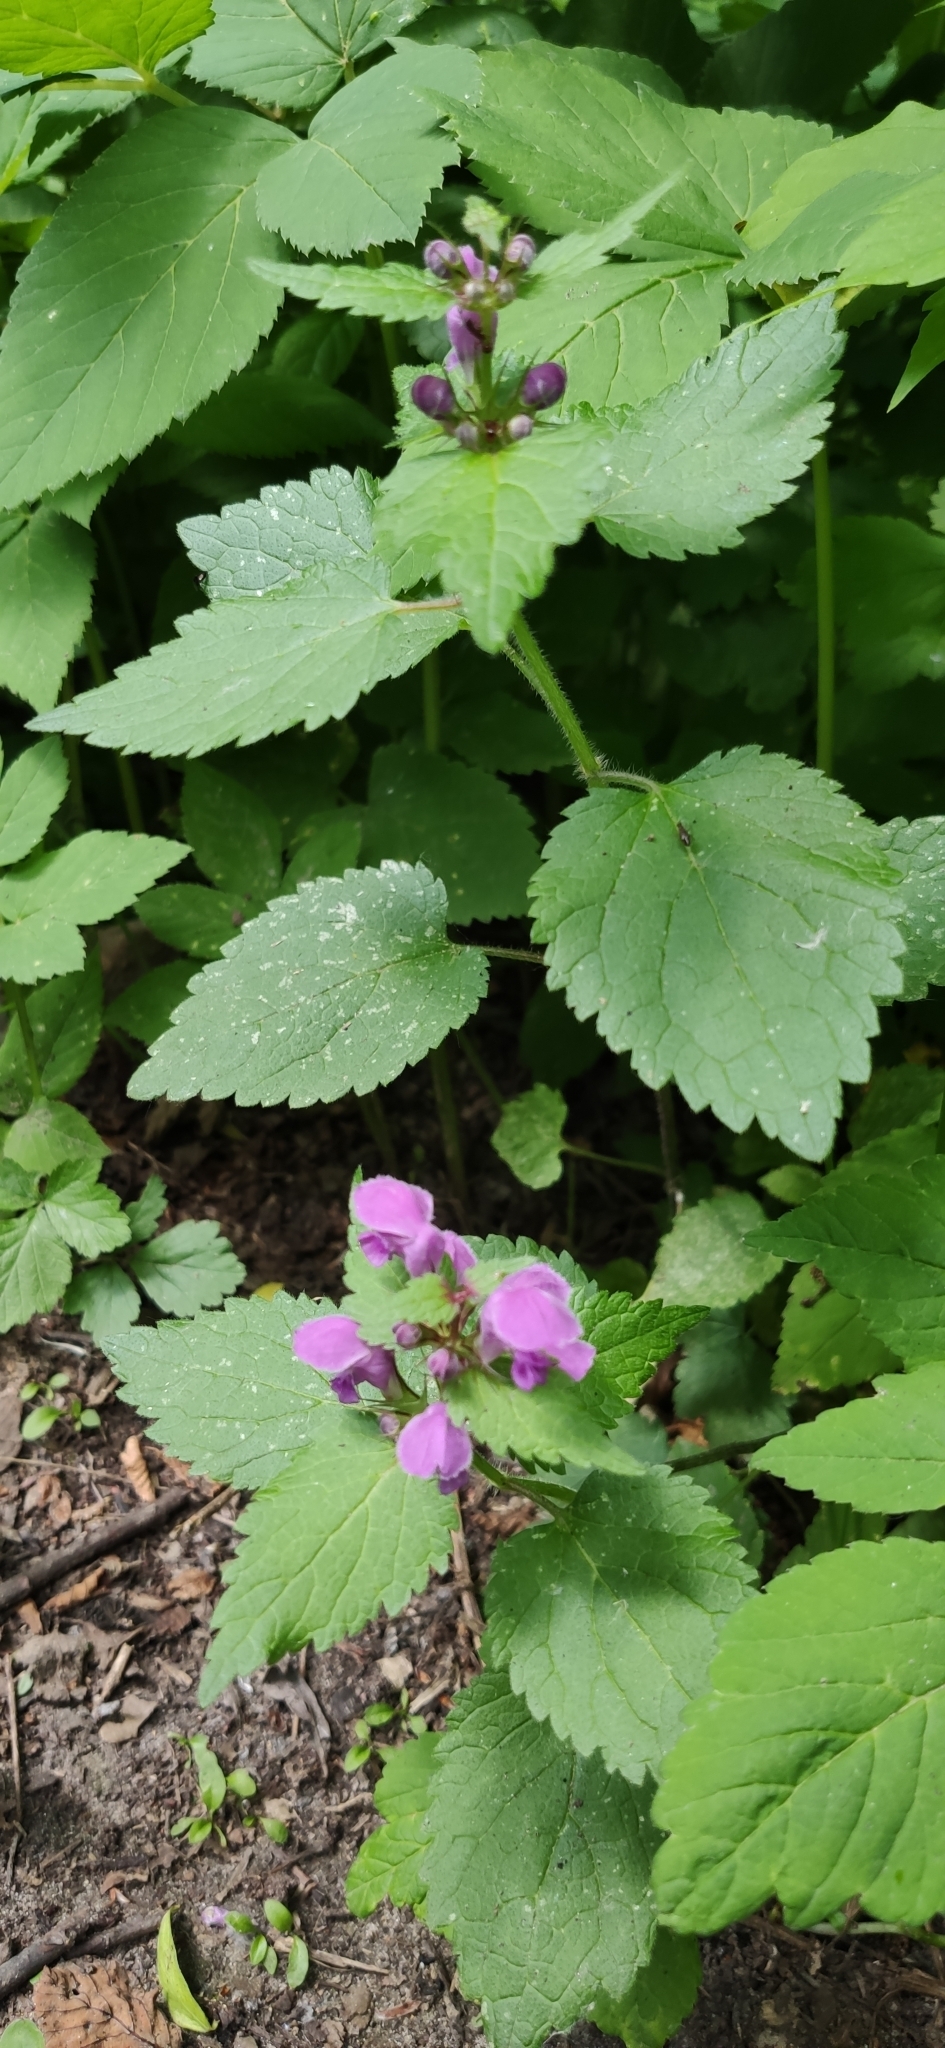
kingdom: Plantae
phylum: Tracheophyta
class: Magnoliopsida
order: Lamiales
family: Lamiaceae
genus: Lamium
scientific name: Lamium maculatum
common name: Spotted dead-nettle
